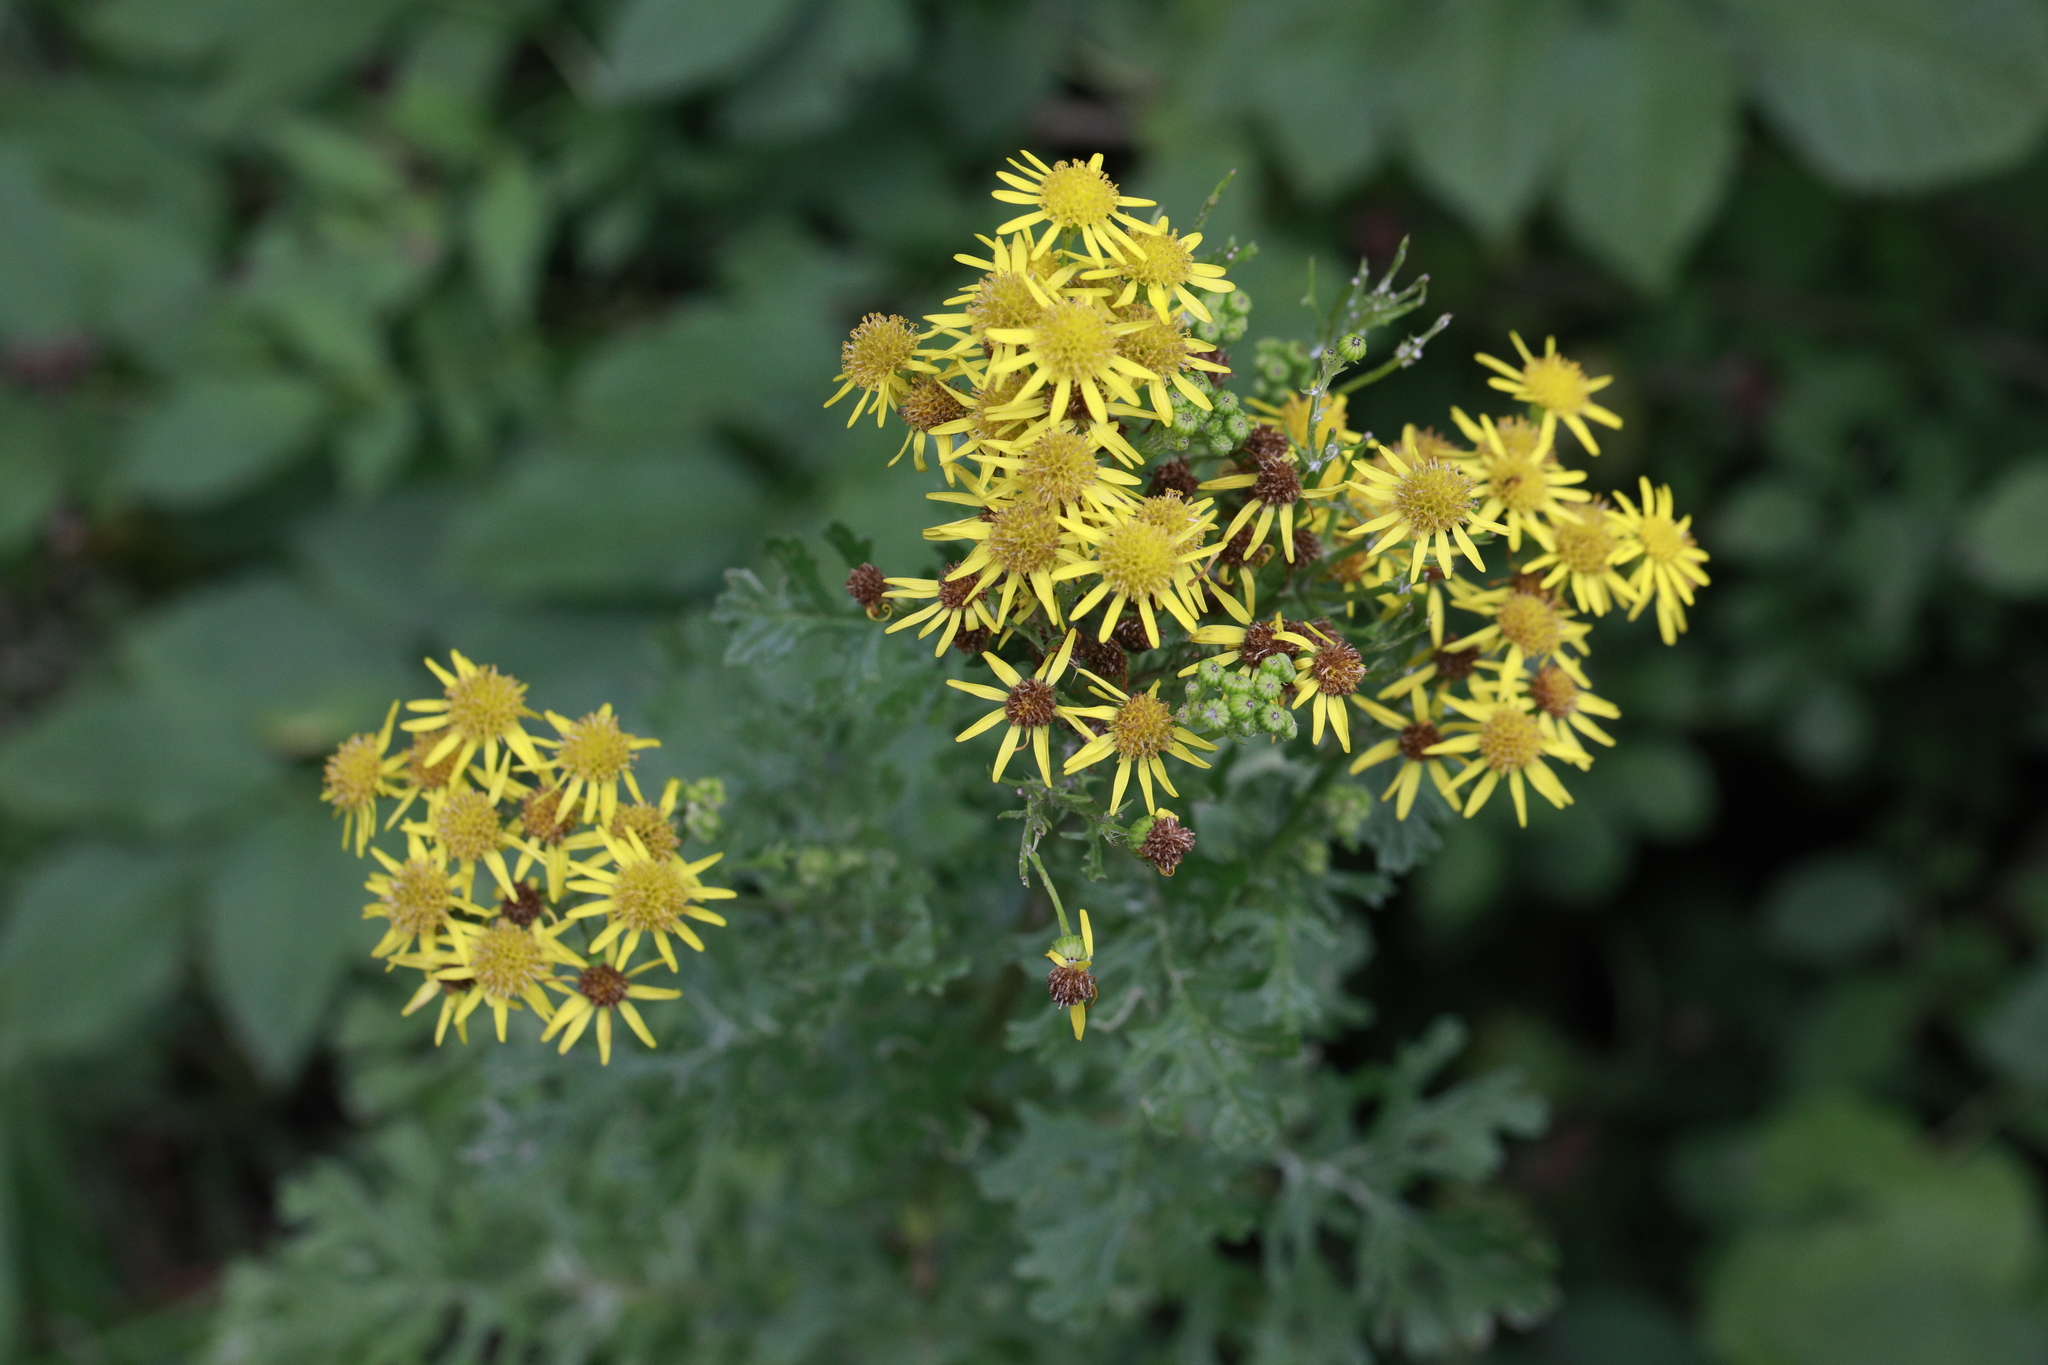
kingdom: Plantae
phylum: Tracheophyta
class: Magnoliopsida
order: Asterales
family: Asteraceae
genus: Jacobaea
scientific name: Jacobaea vulgaris
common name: Stinking willie
